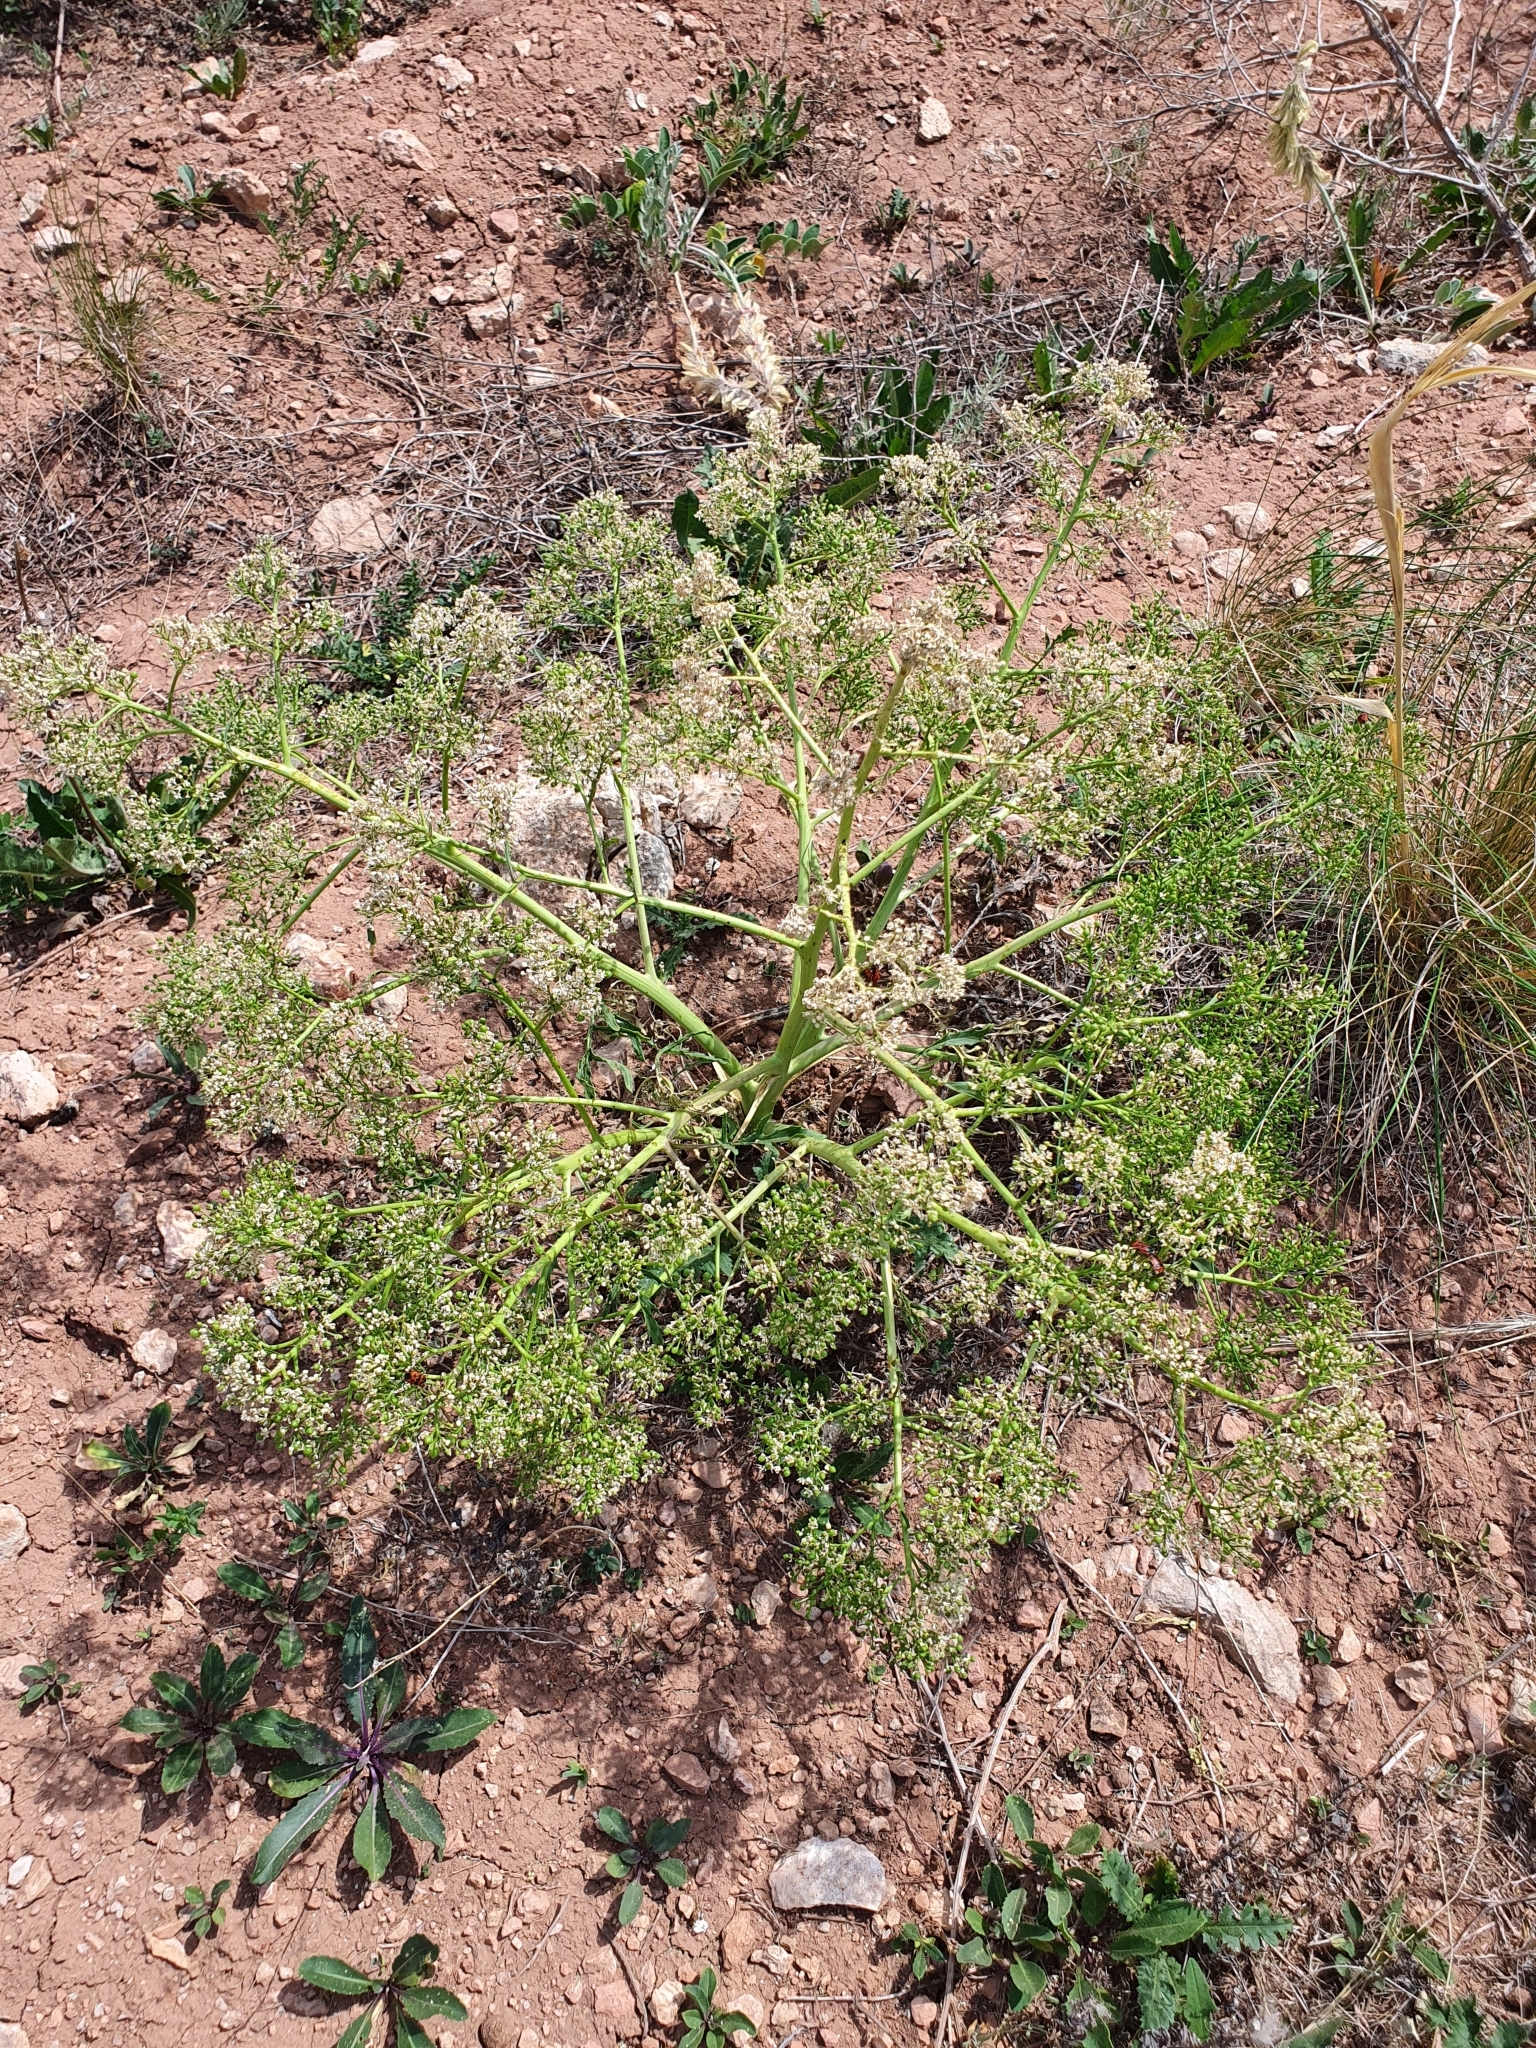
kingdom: Plantae
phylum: Tracheophyta
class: Magnoliopsida
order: Brassicales
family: Brassicaceae
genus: Crambe
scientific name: Crambe tataria
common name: Tartarian breadplant
